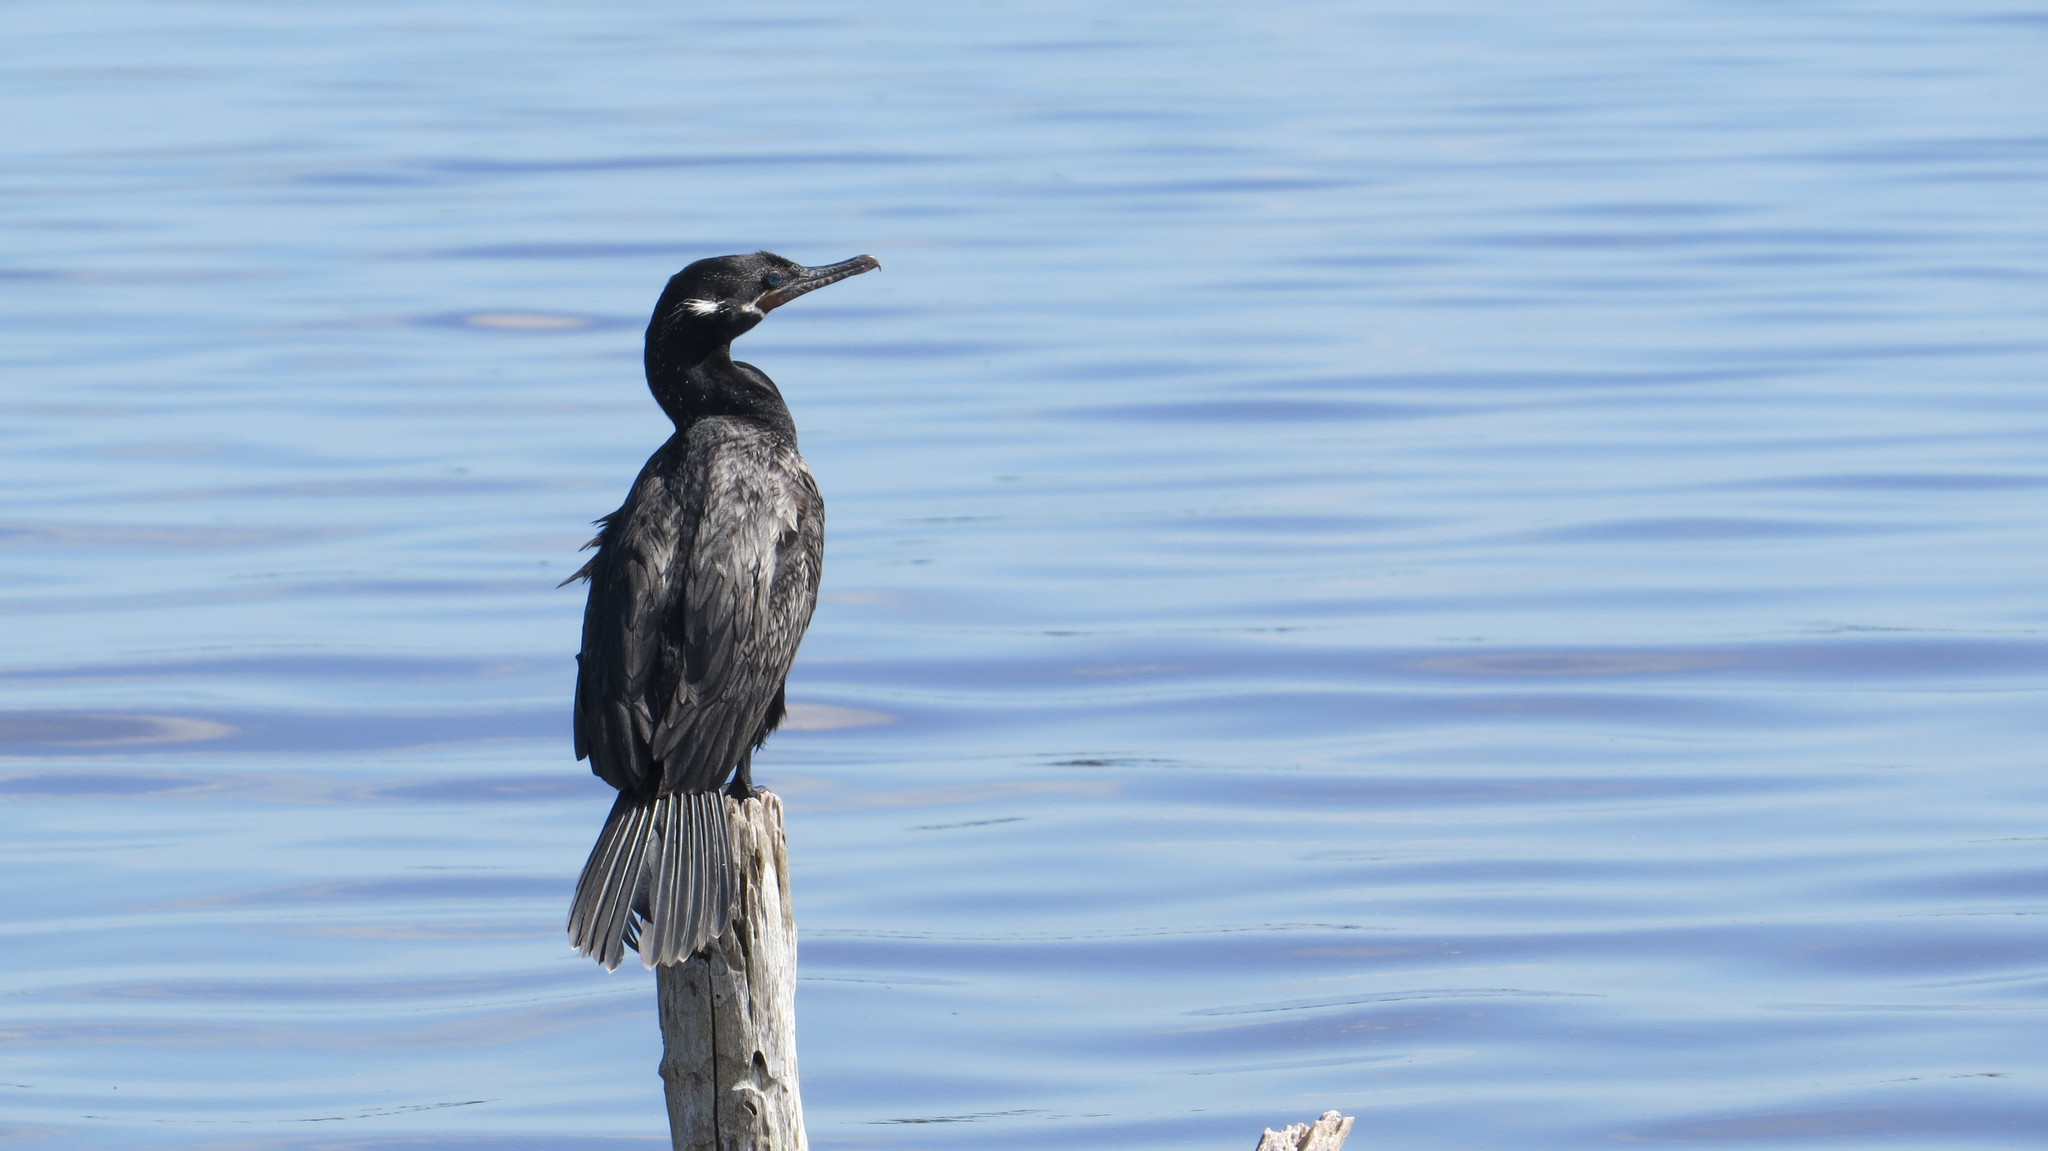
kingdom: Animalia
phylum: Chordata
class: Aves
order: Suliformes
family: Phalacrocoracidae
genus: Phalacrocorax
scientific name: Phalacrocorax brasilianus
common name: Neotropic cormorant
